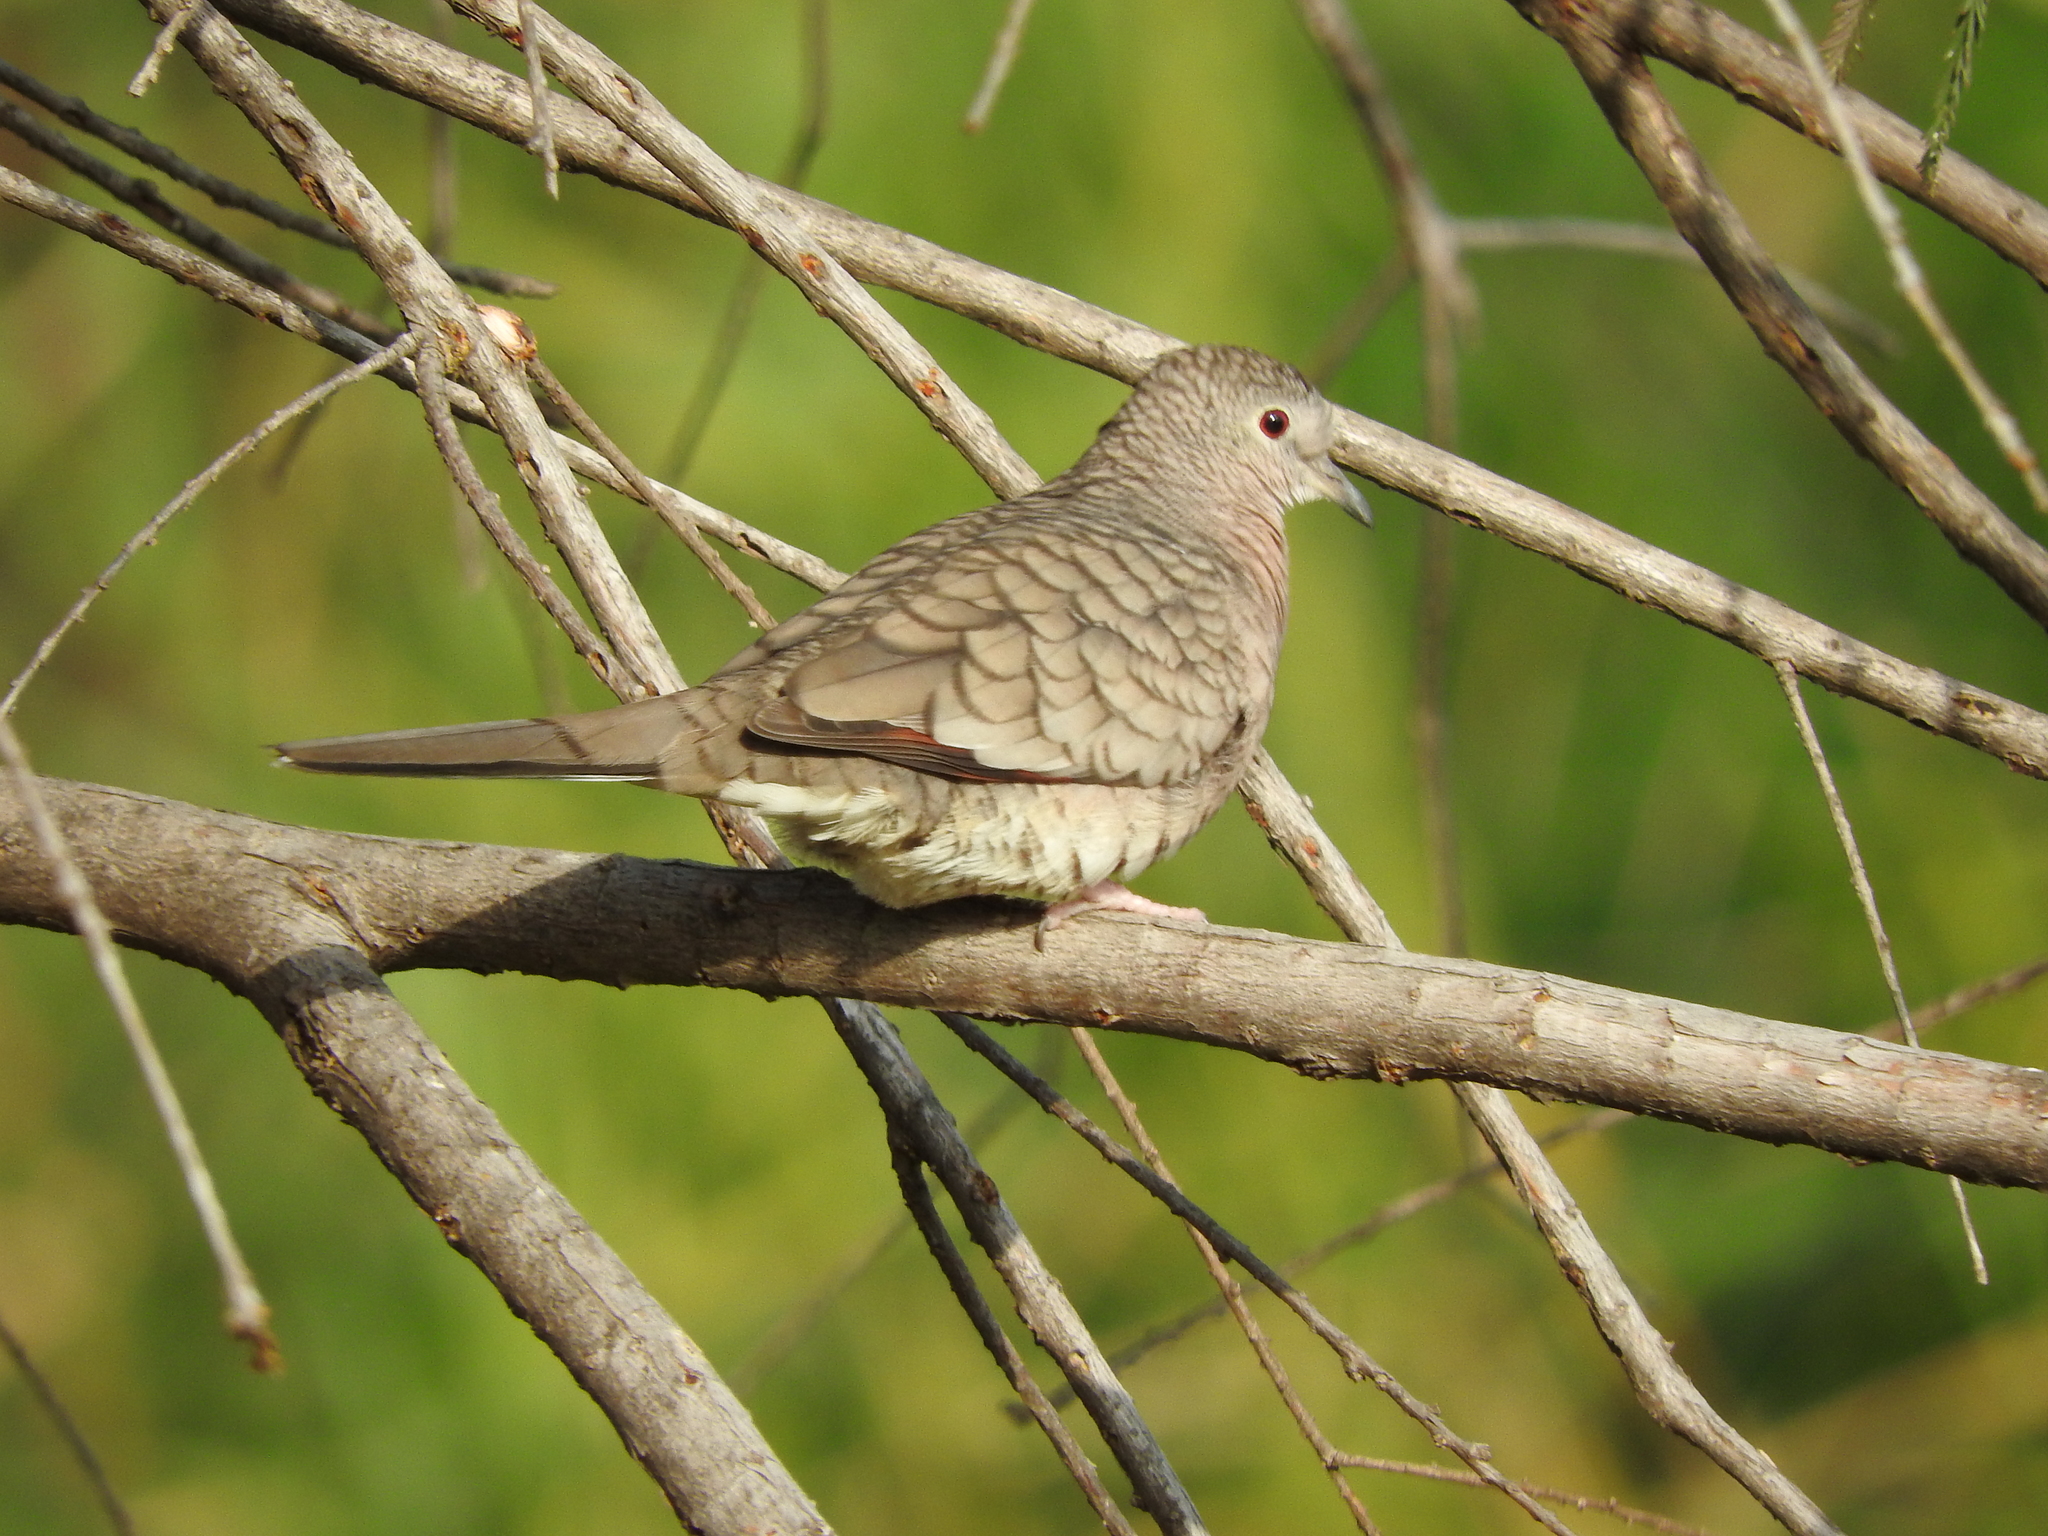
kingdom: Animalia
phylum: Chordata
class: Aves
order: Columbiformes
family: Columbidae
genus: Columbina
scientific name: Columbina inca
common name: Inca dove
